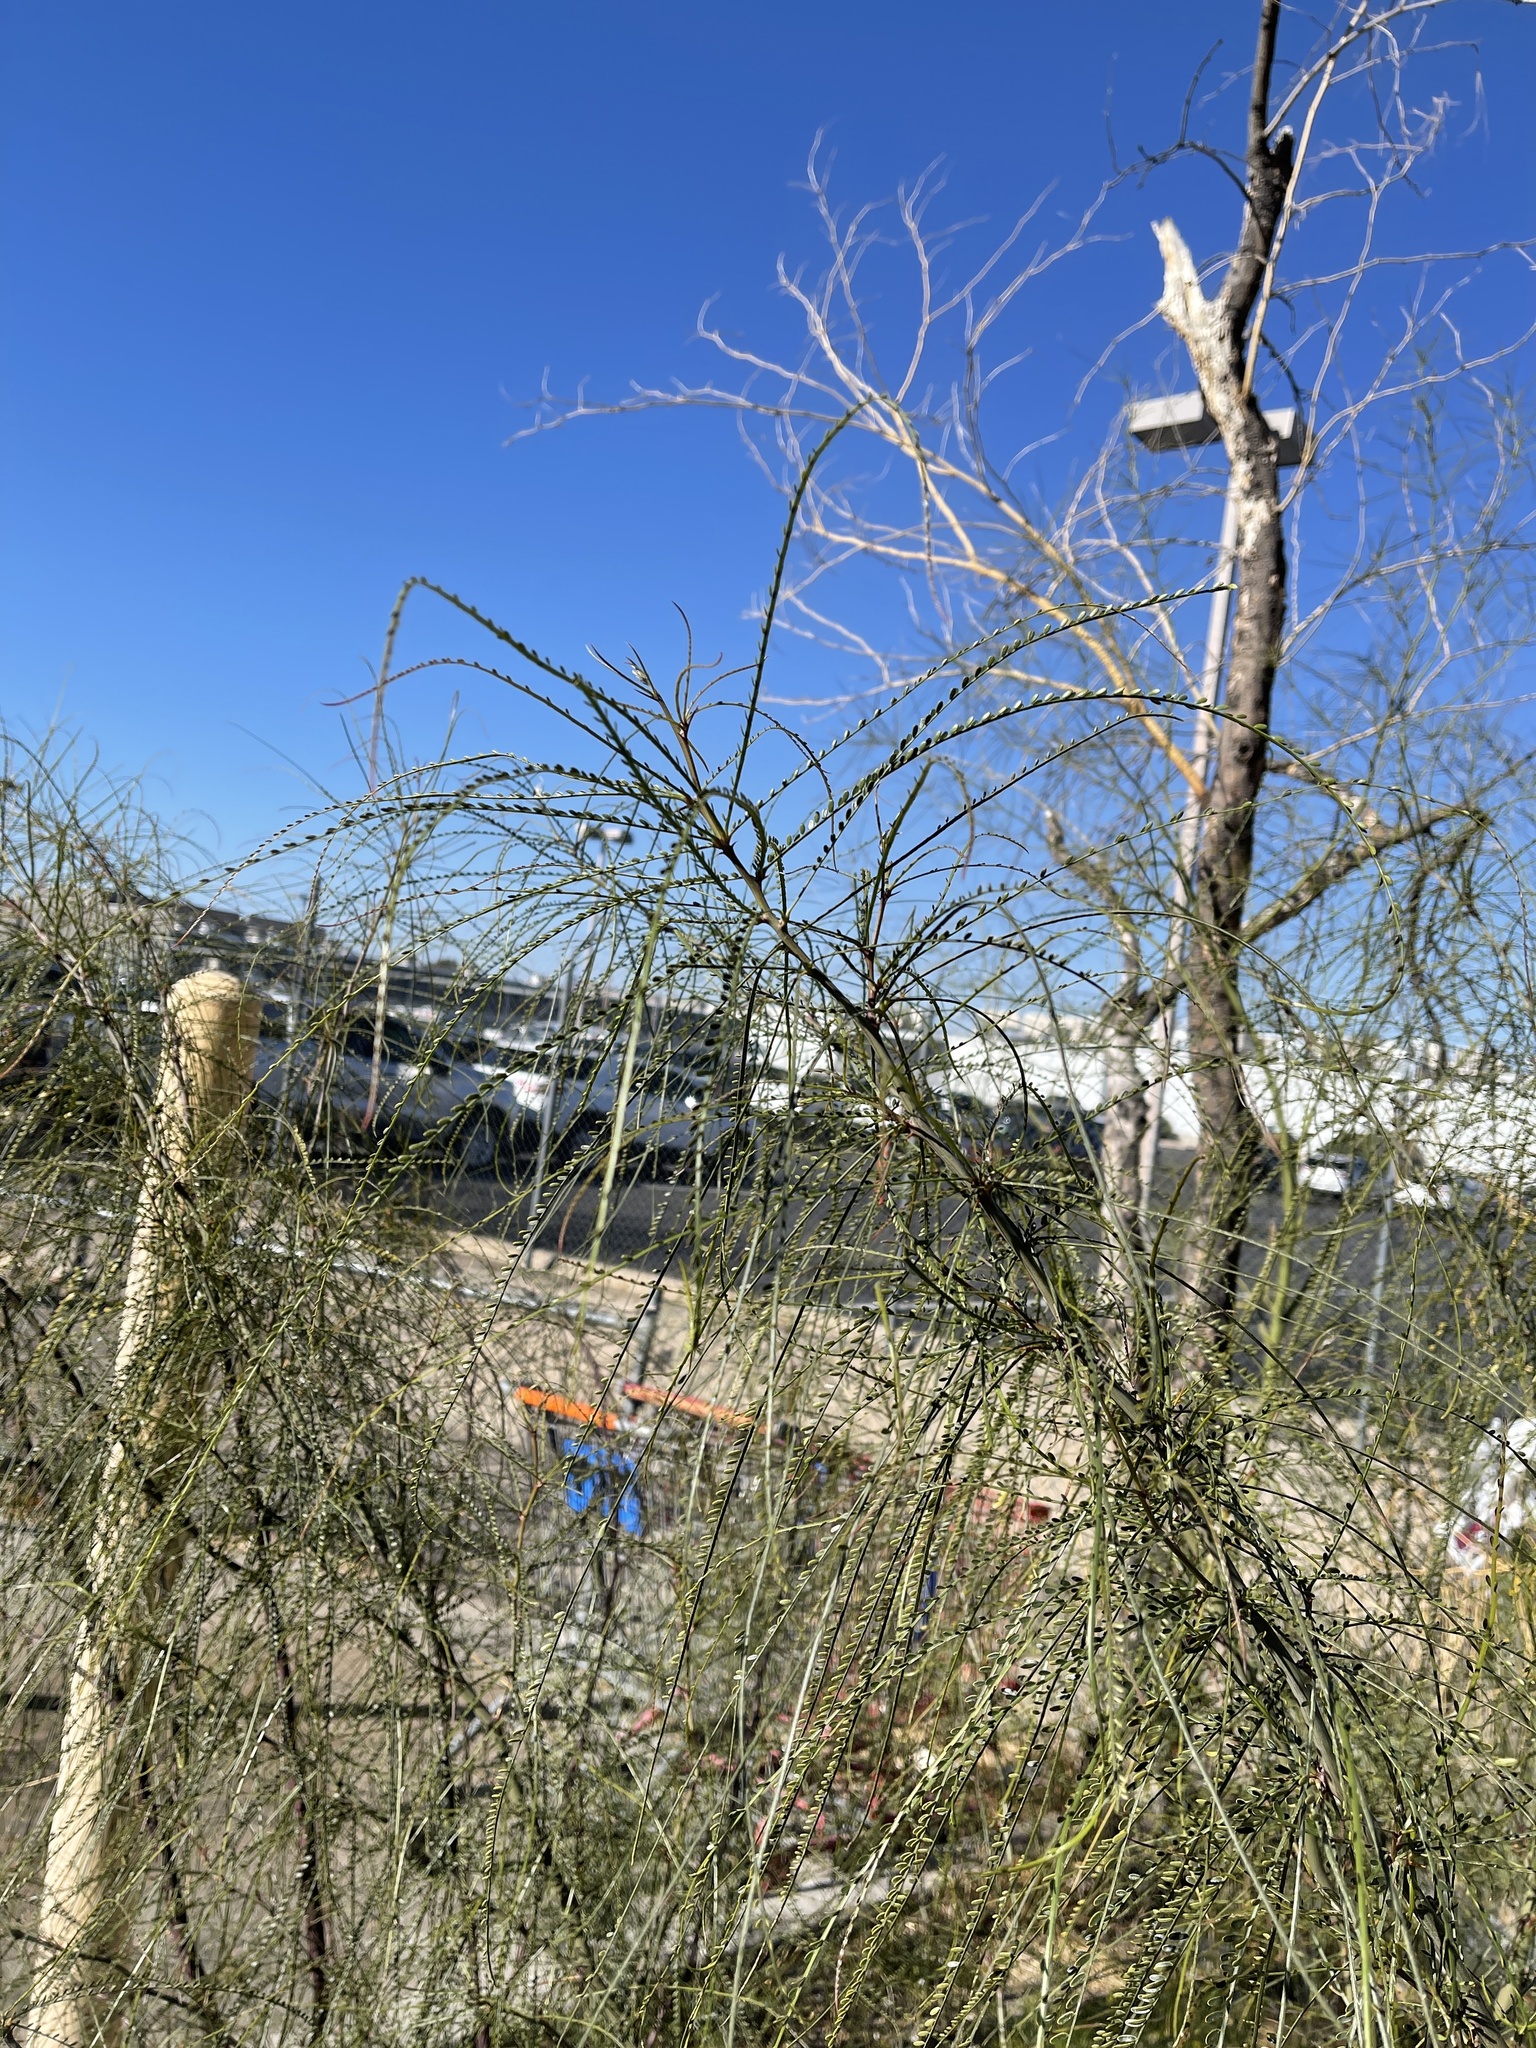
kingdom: Plantae
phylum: Tracheophyta
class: Magnoliopsida
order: Fabales
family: Fabaceae
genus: Parkinsonia
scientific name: Parkinsonia aculeata
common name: Jerusalem thorn
